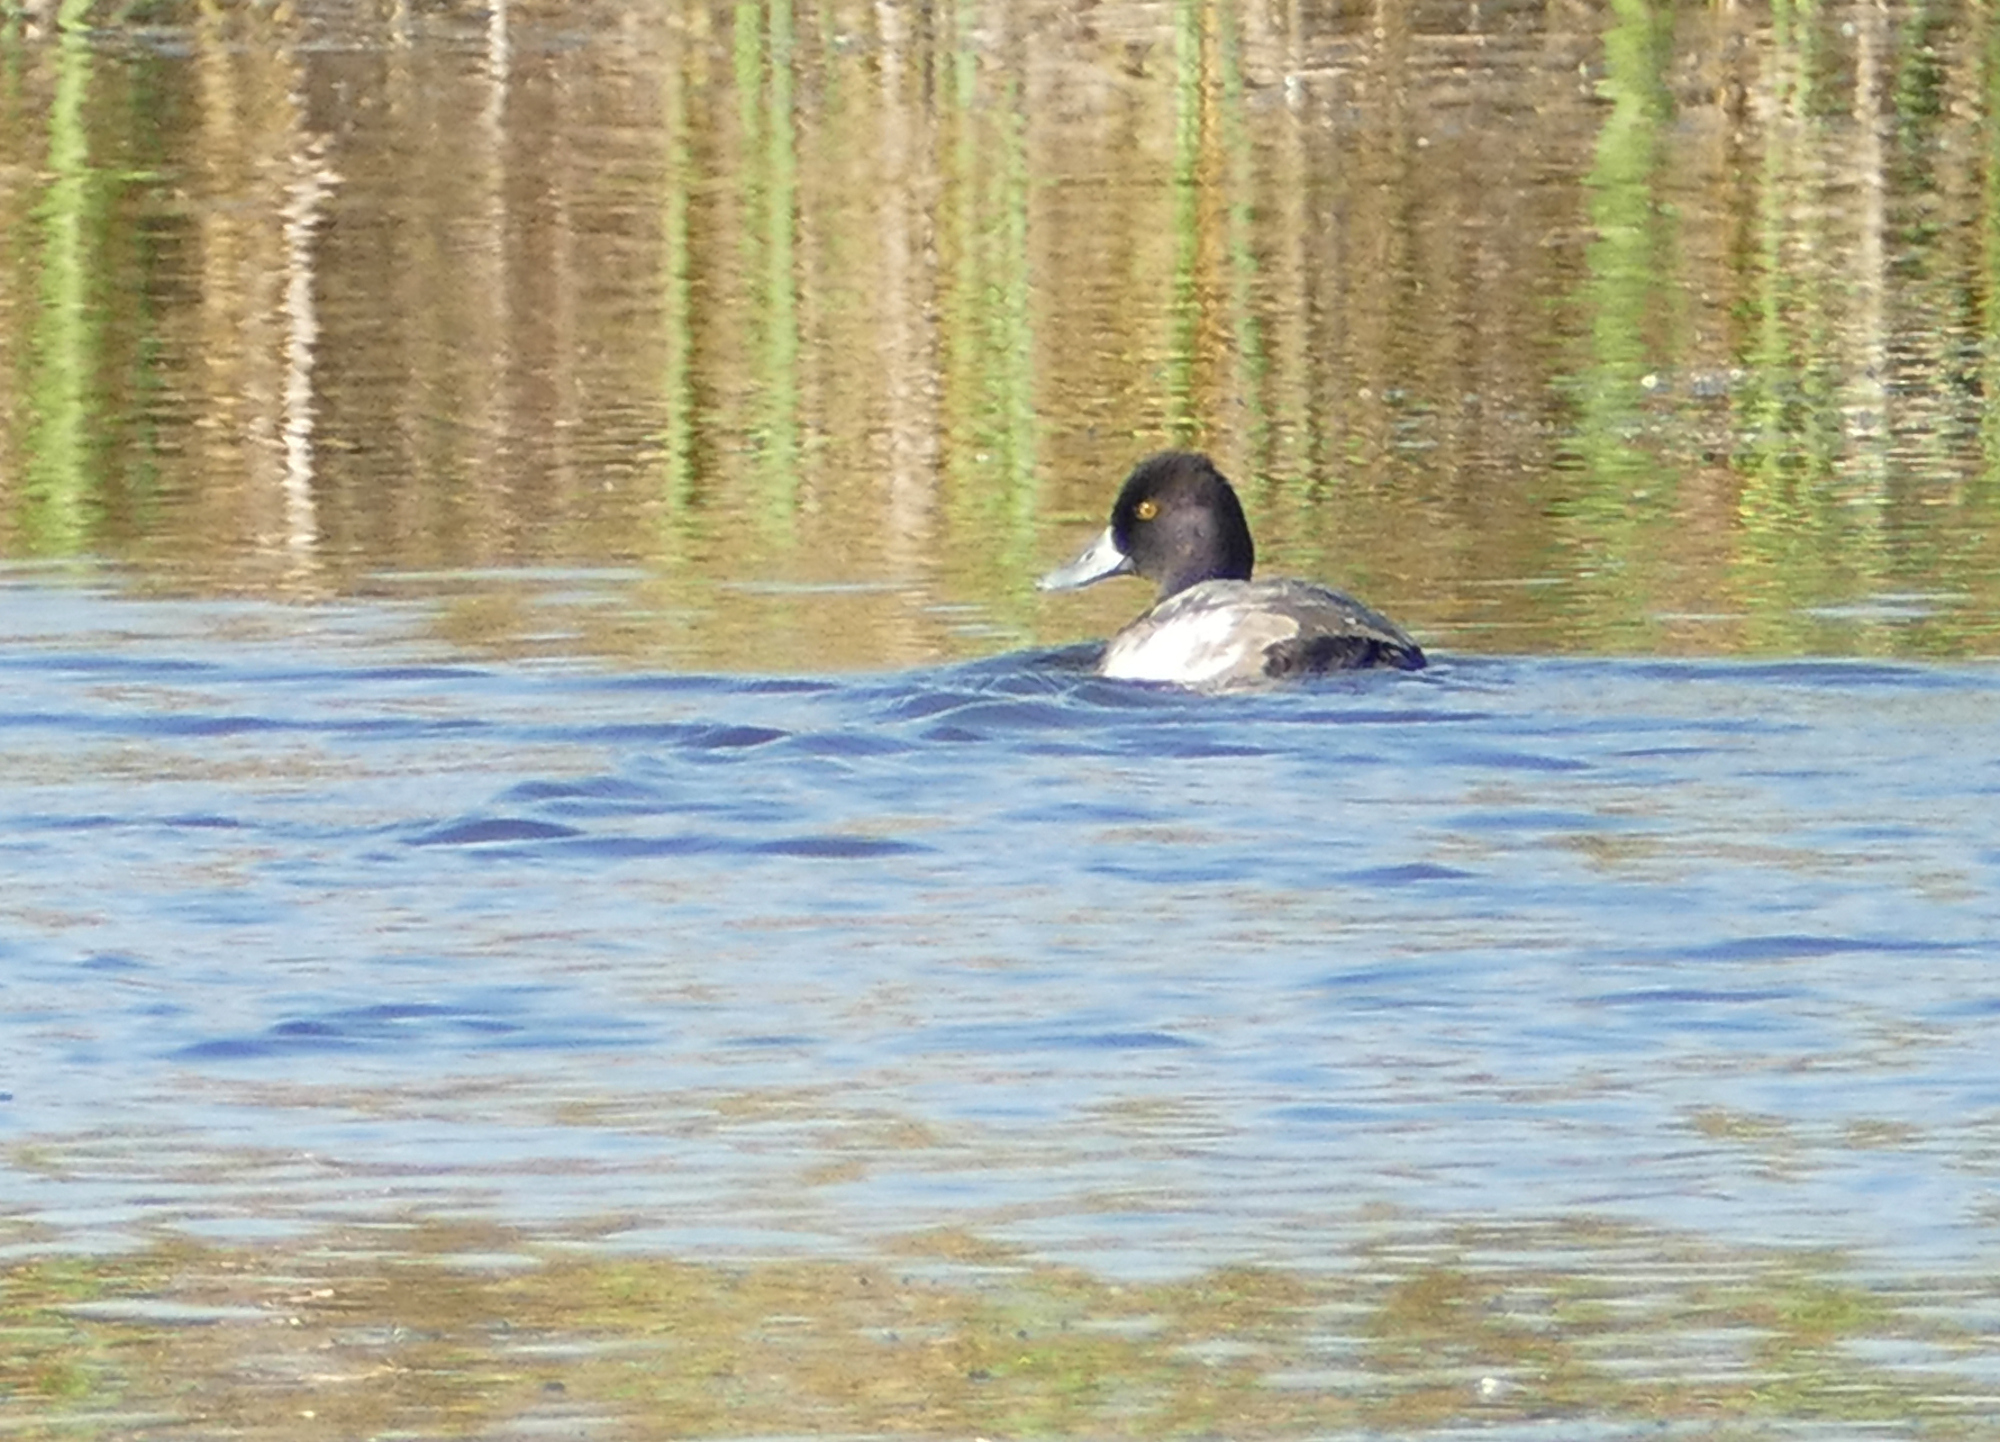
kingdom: Animalia
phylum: Chordata
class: Aves
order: Anseriformes
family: Anatidae
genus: Aythya
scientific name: Aythya affinis
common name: Lesser scaup
